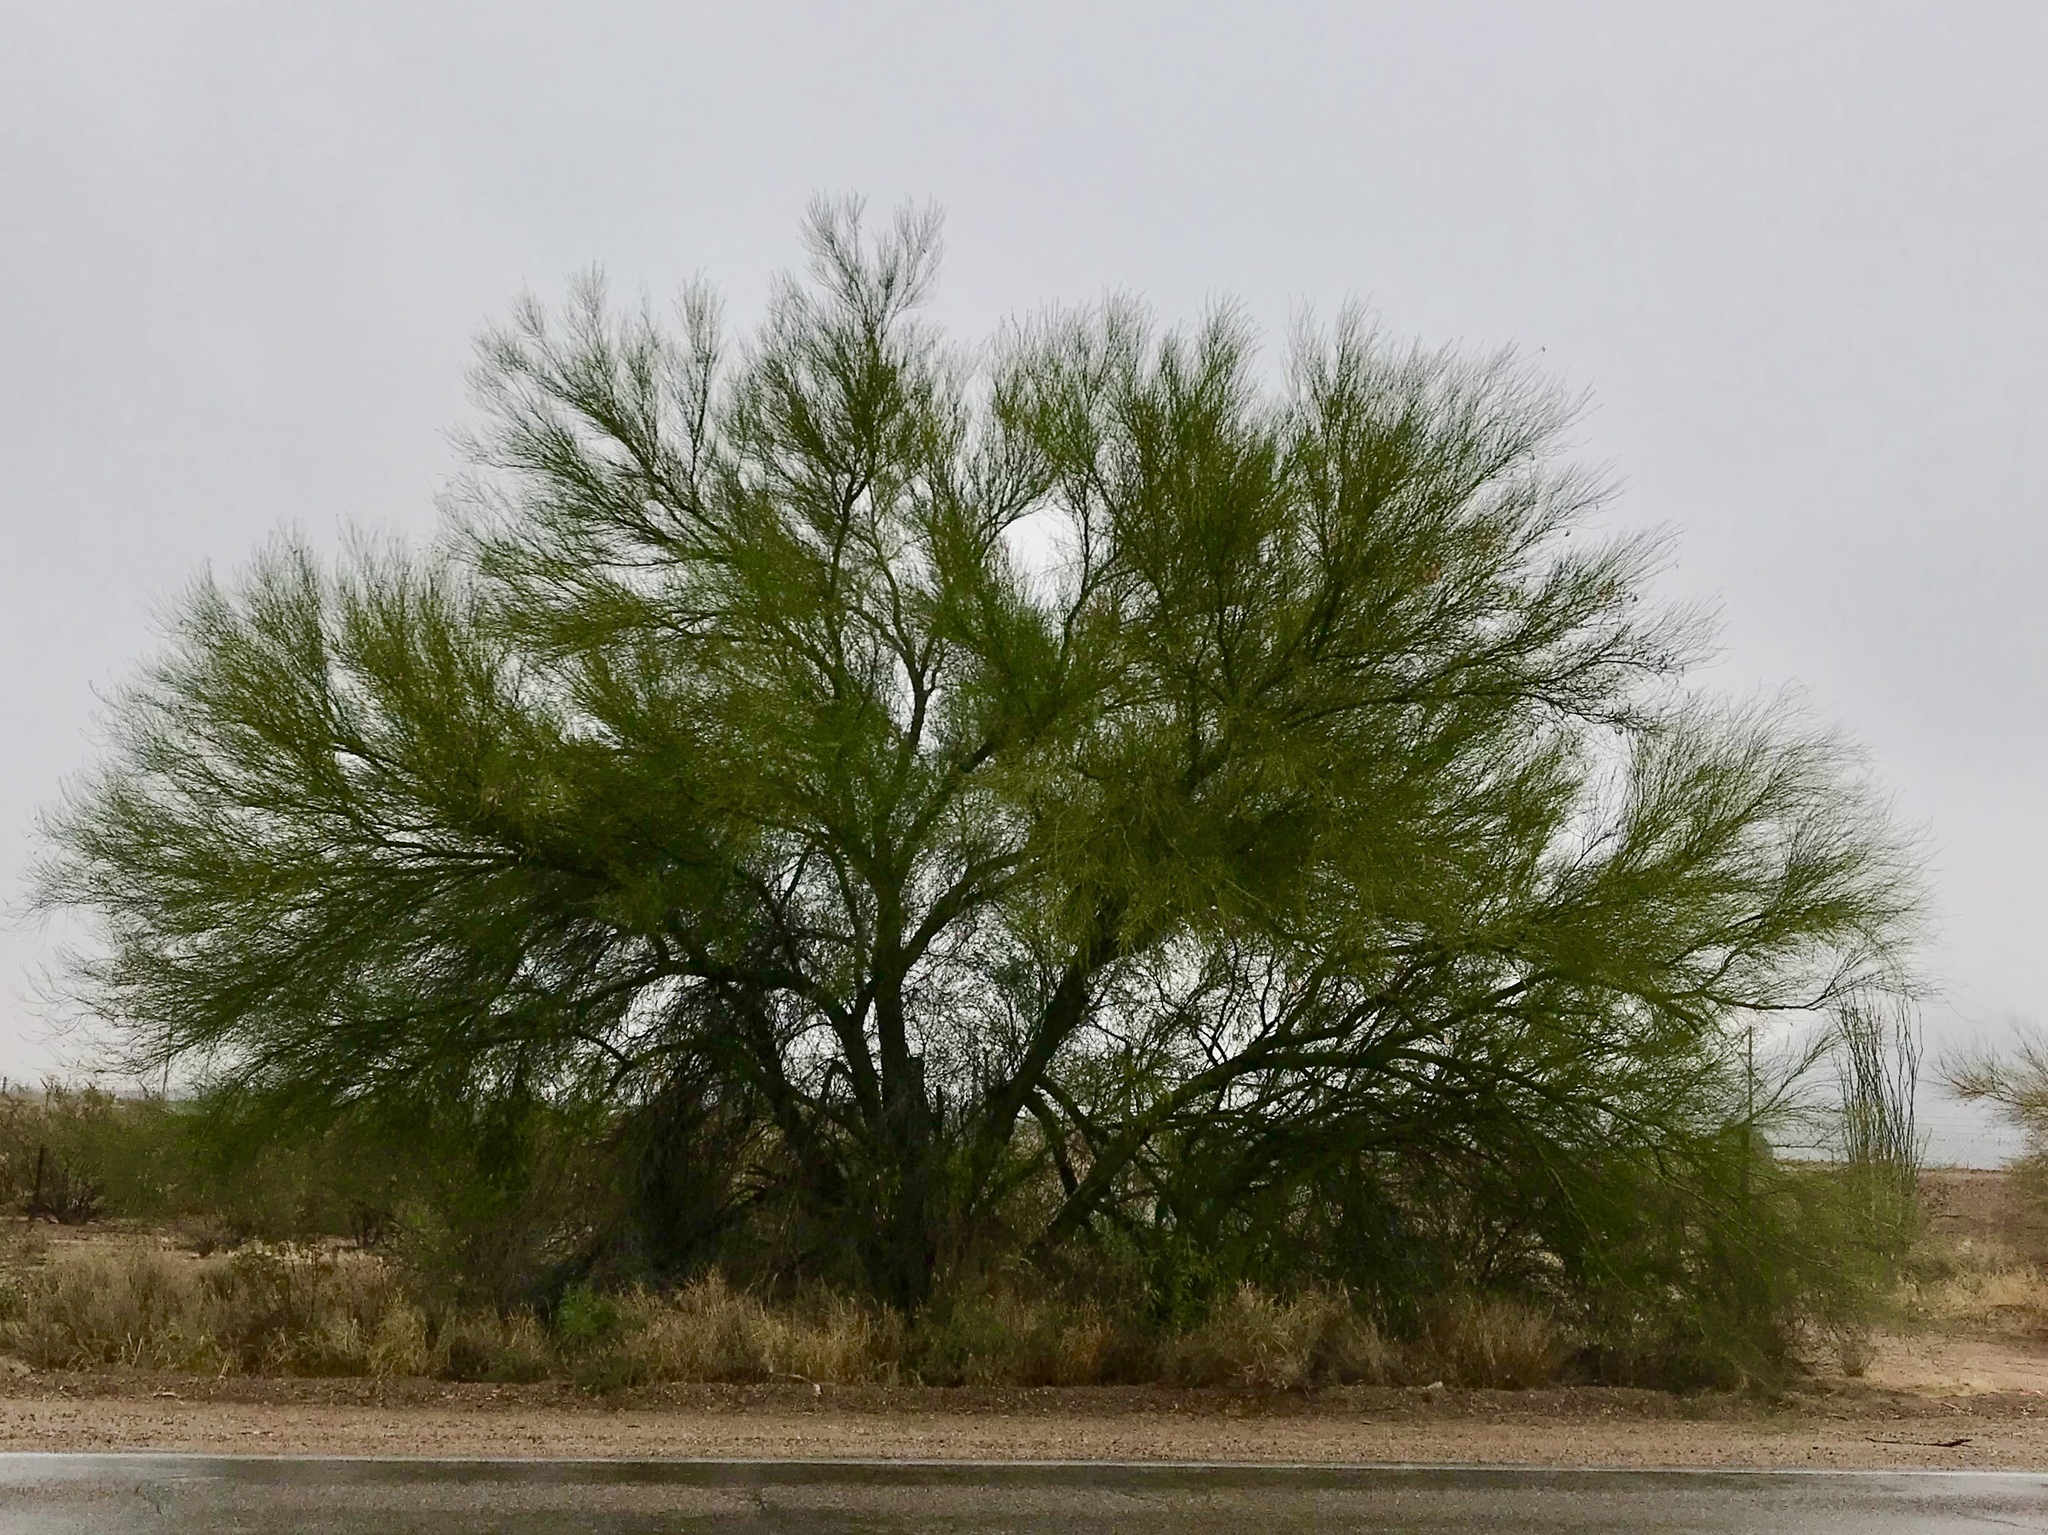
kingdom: Plantae
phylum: Tracheophyta
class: Magnoliopsida
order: Fabales
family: Fabaceae
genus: Parkinsonia
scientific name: Parkinsonia florida
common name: Blue paloverde
